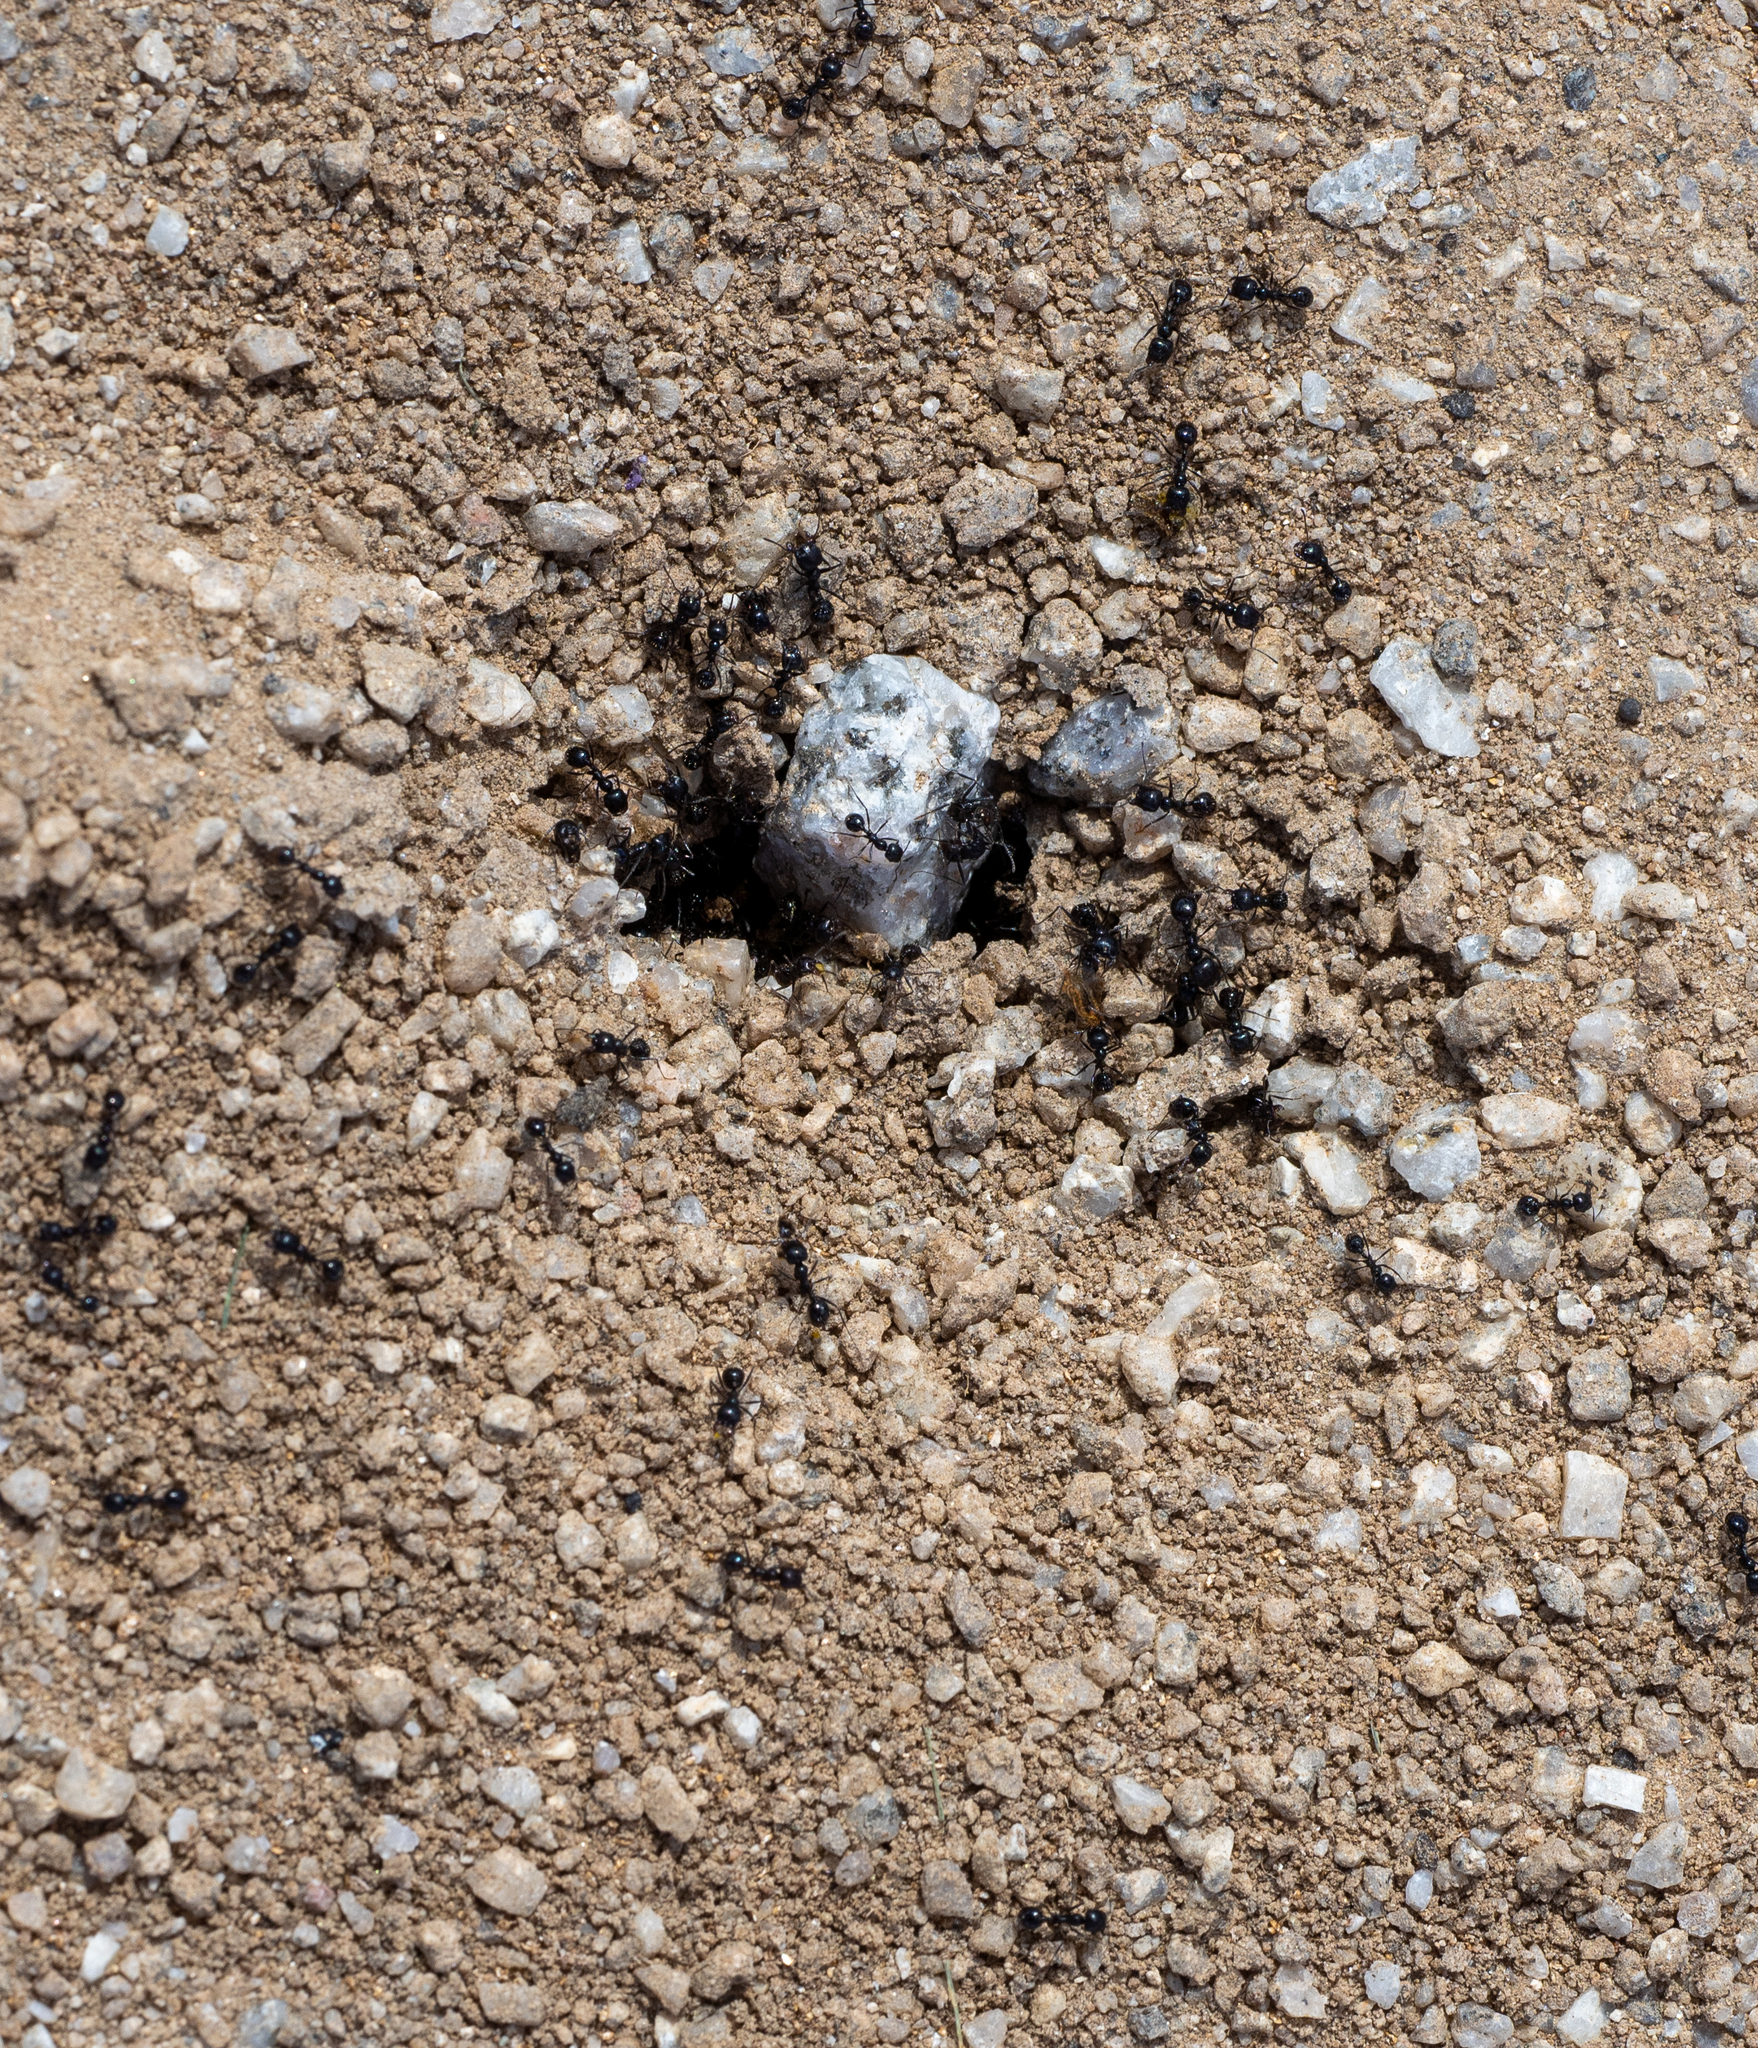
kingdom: Animalia
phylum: Arthropoda
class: Insecta
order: Hymenoptera
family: Formicidae
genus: Messor
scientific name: Messor pergandei
